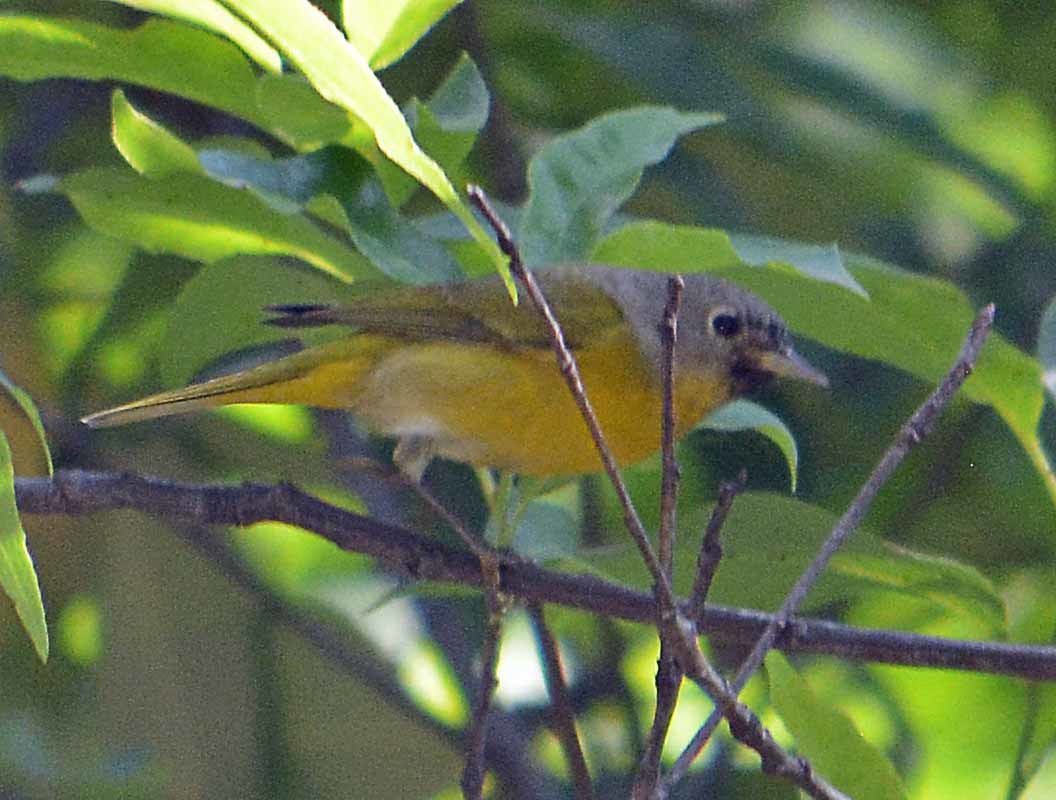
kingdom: Animalia
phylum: Chordata
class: Aves
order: Passeriformes
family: Parulidae
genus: Leiothlypis
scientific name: Leiothlypis ruficapilla
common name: Nashville warbler
